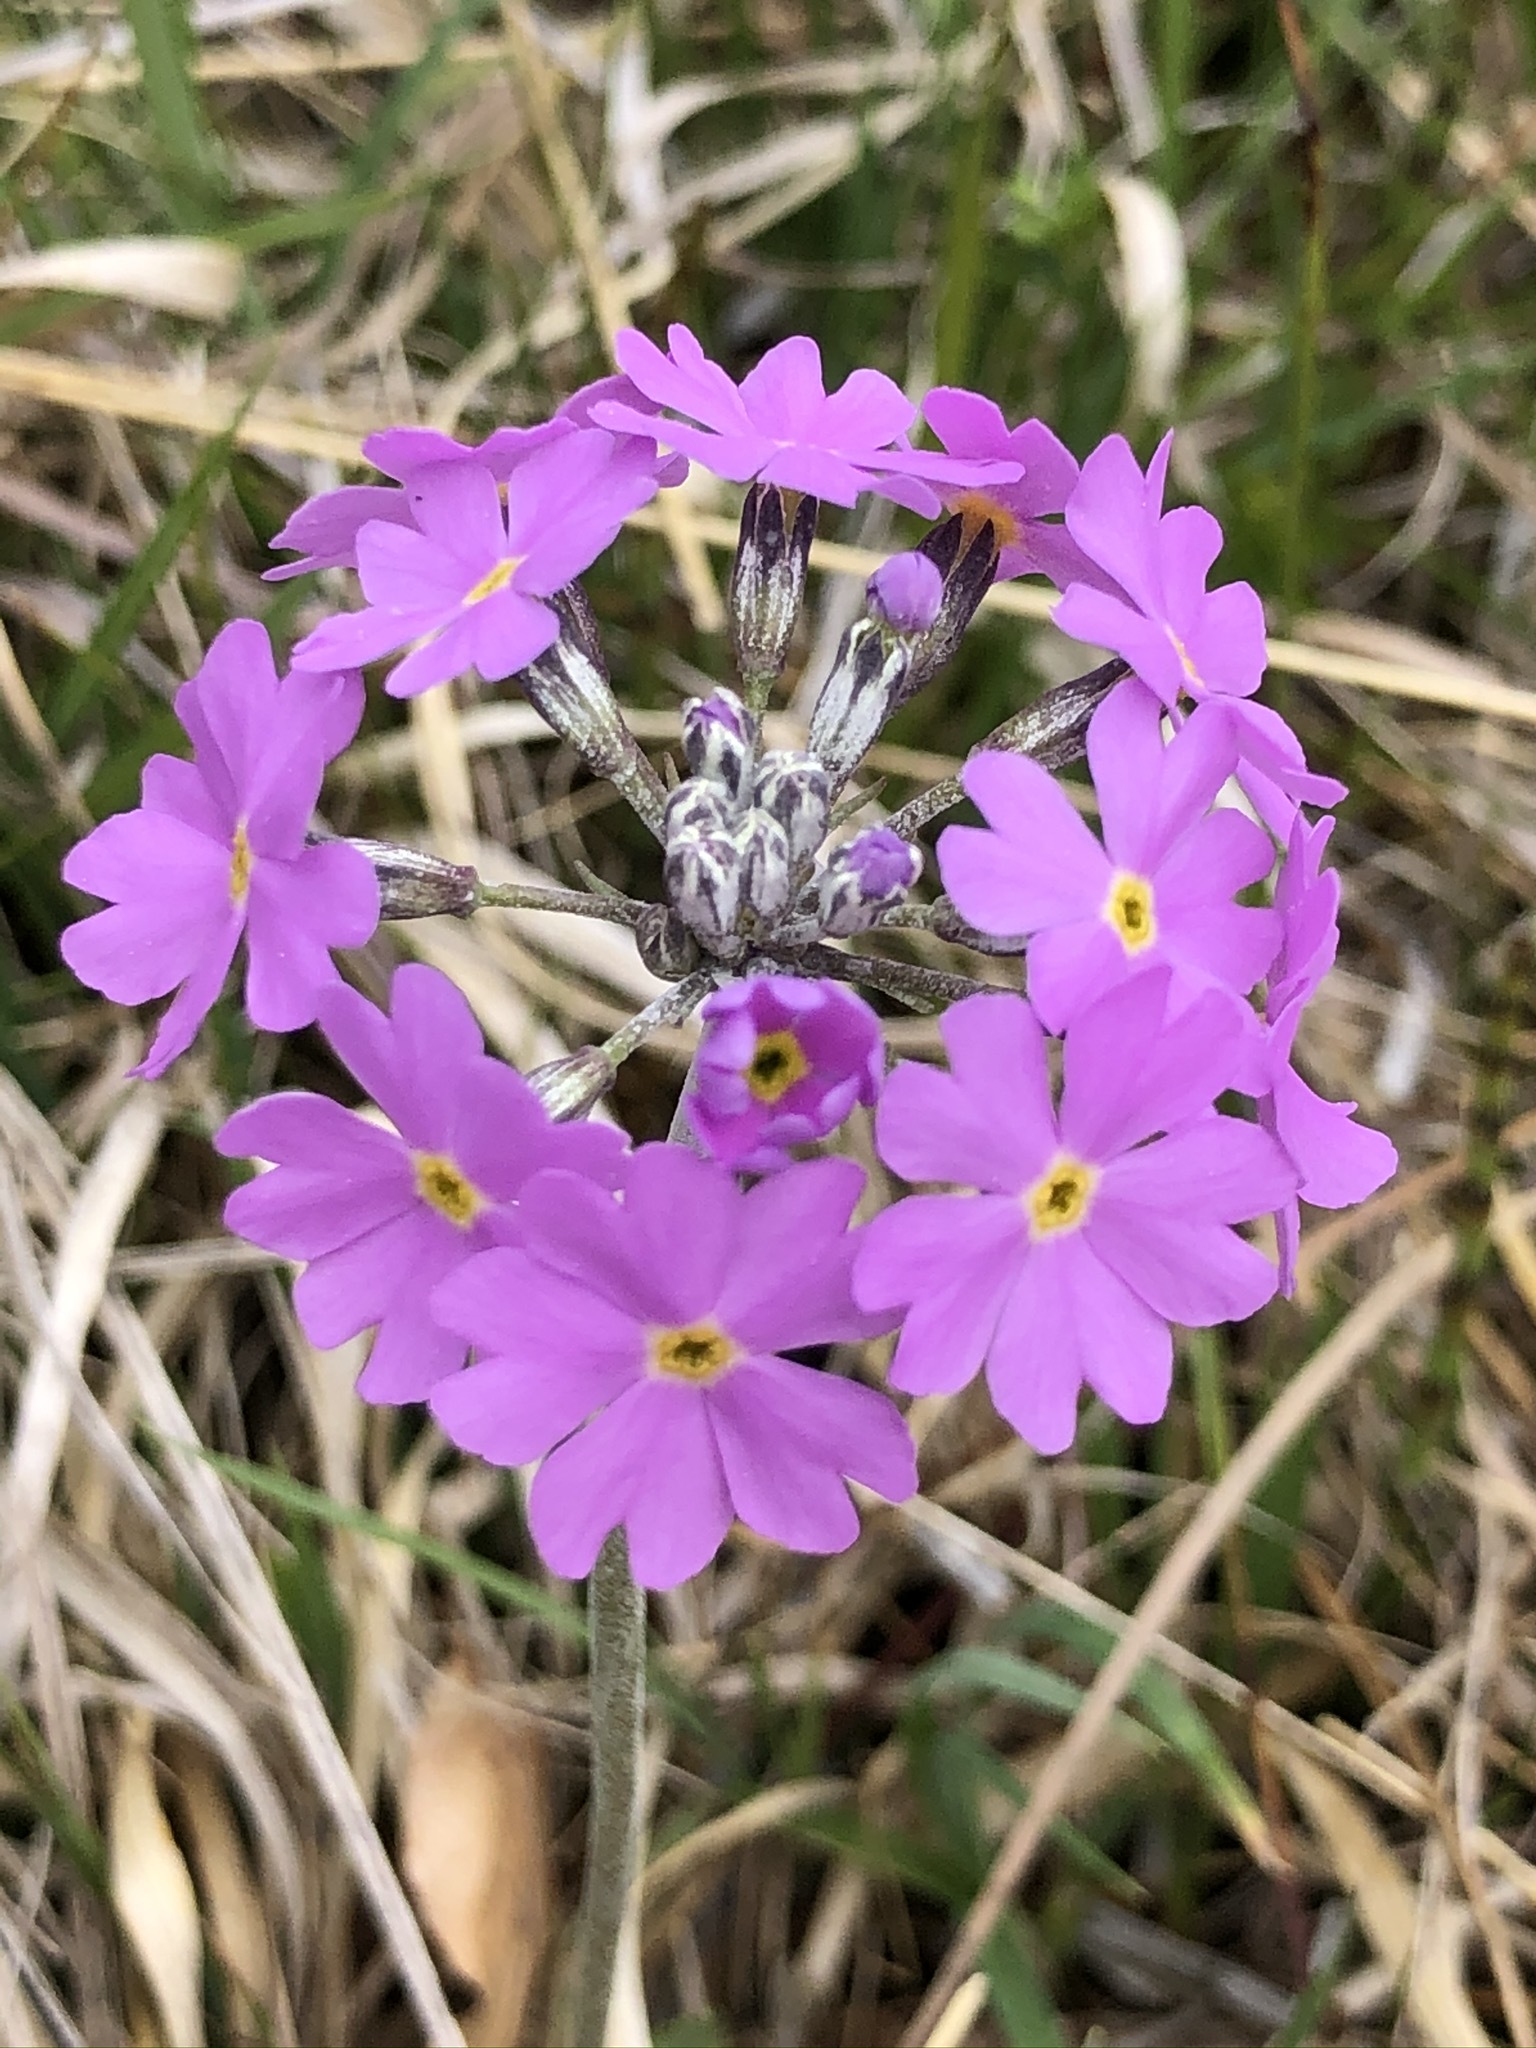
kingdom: Plantae
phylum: Tracheophyta
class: Magnoliopsida
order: Ericales
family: Primulaceae
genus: Primula
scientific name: Primula farinosa
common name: Bird's-eye primrose
